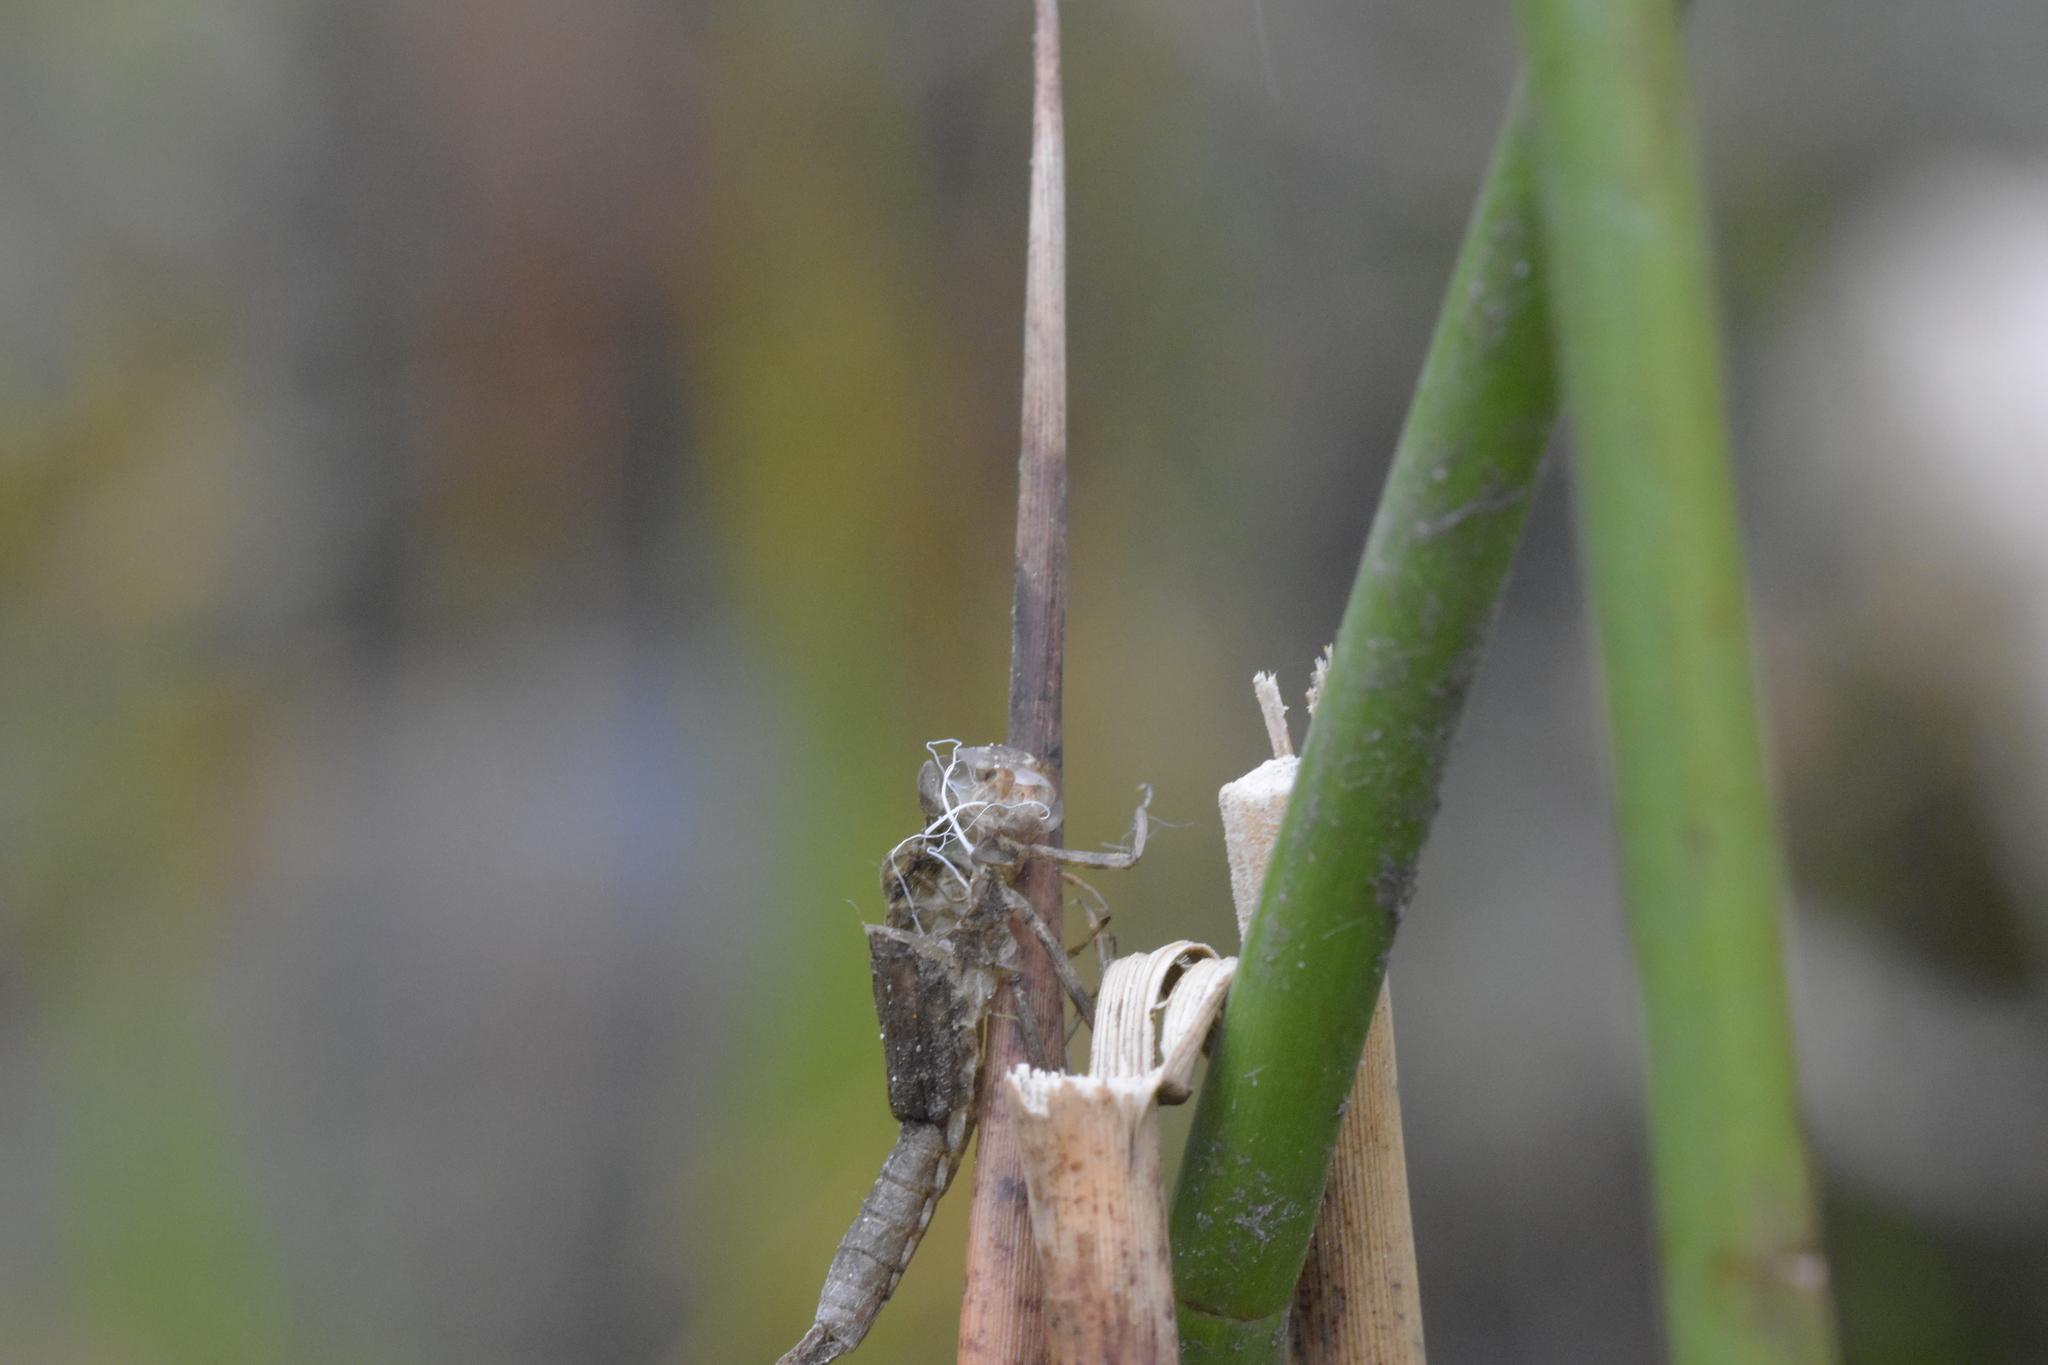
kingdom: Animalia
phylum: Arthropoda
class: Insecta
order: Odonata
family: Coenagrionidae
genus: Pyrrhosoma
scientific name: Pyrrhosoma nymphula
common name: Large red damsel
